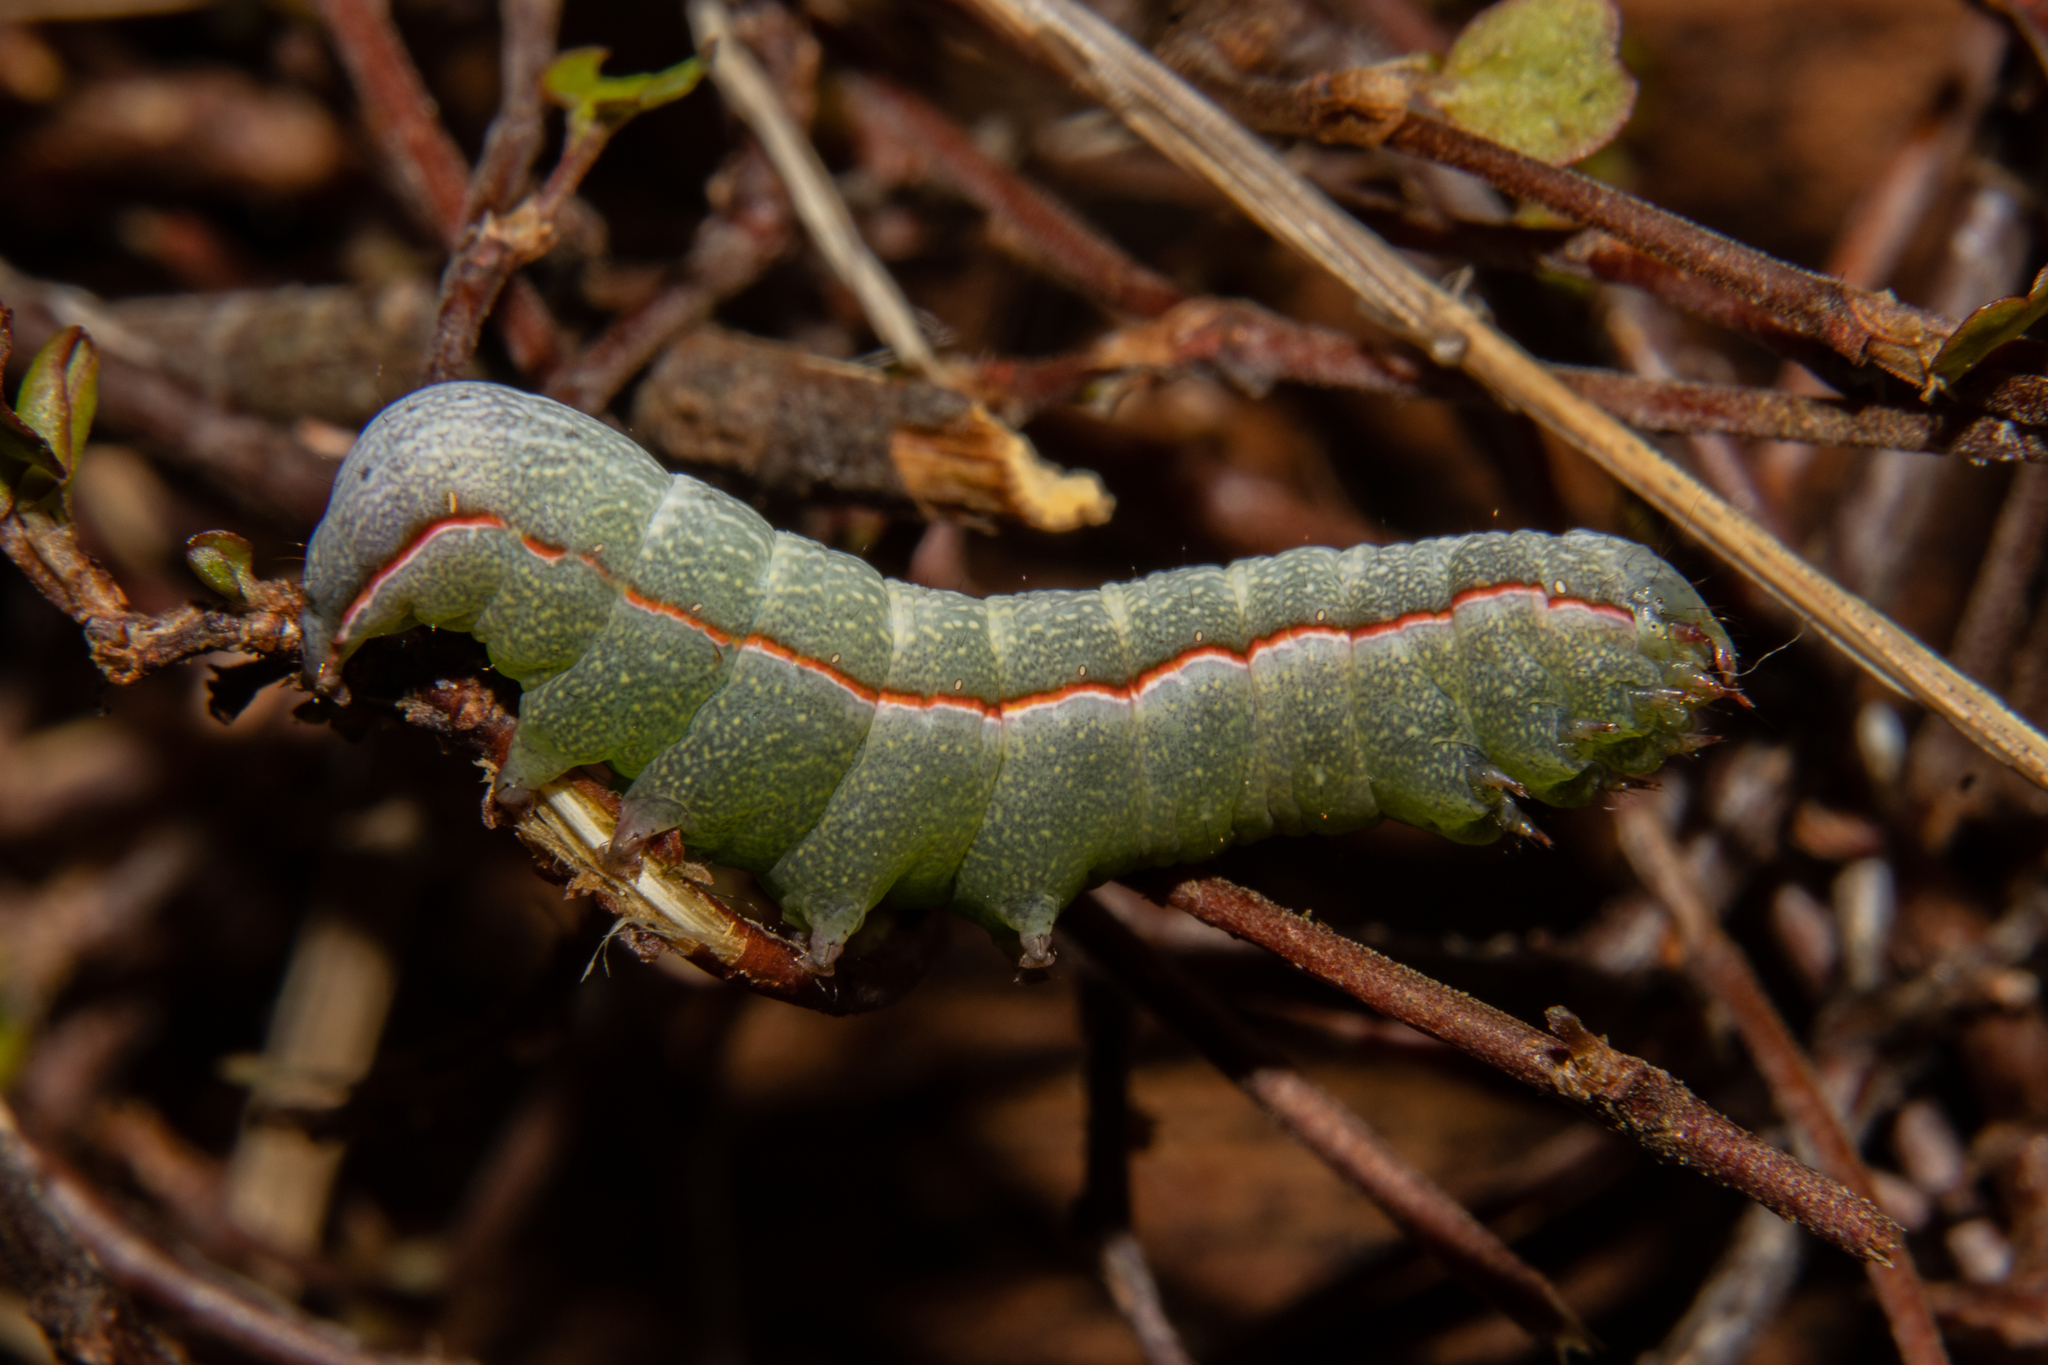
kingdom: Animalia
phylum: Arthropoda
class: Insecta
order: Lepidoptera
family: Noctuidae
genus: Meterana
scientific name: Meterana ochthistis
